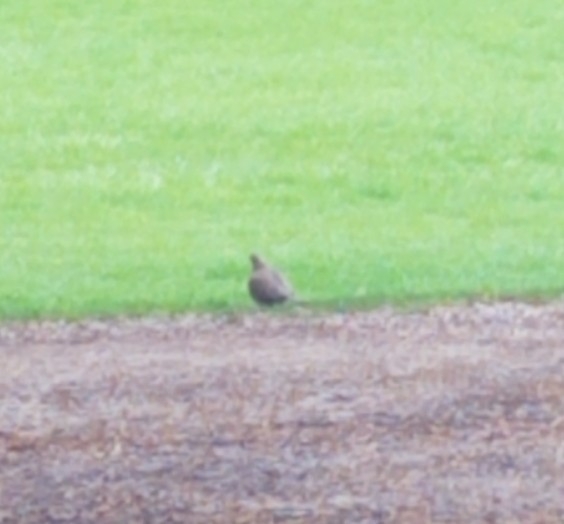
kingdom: Animalia
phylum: Chordata
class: Aves
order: Columbiformes
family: Columbidae
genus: Zenaida
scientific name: Zenaida macroura
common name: Mourning dove
